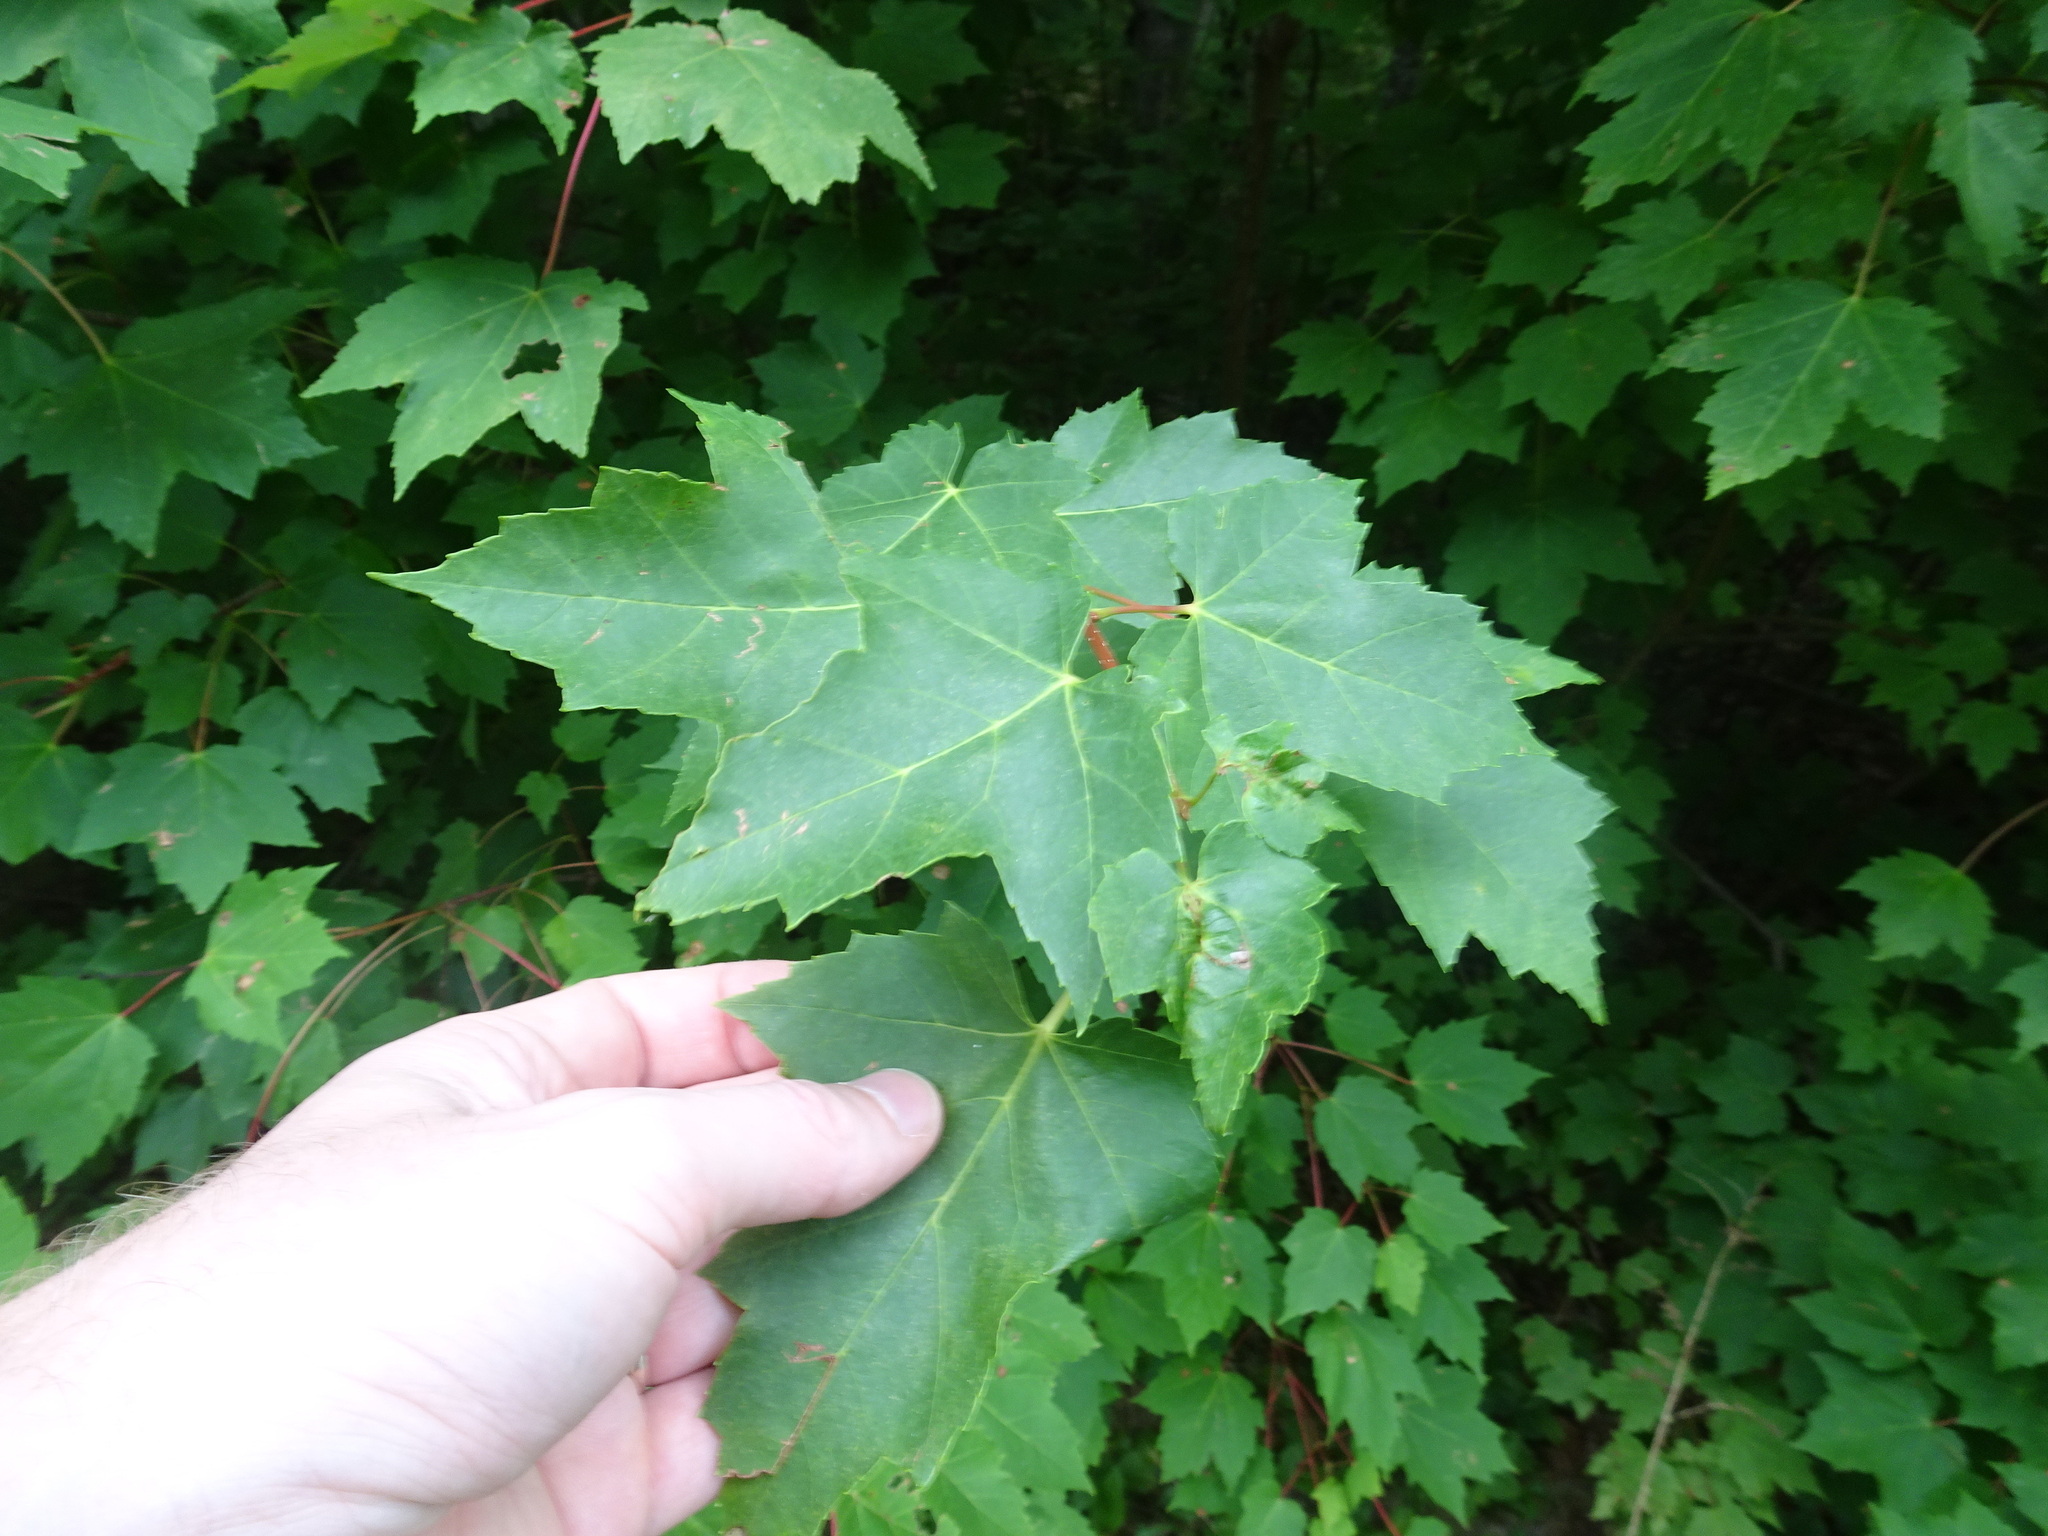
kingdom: Plantae
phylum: Tracheophyta
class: Magnoliopsida
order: Sapindales
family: Sapindaceae
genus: Acer
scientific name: Acer rubrum
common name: Red maple
